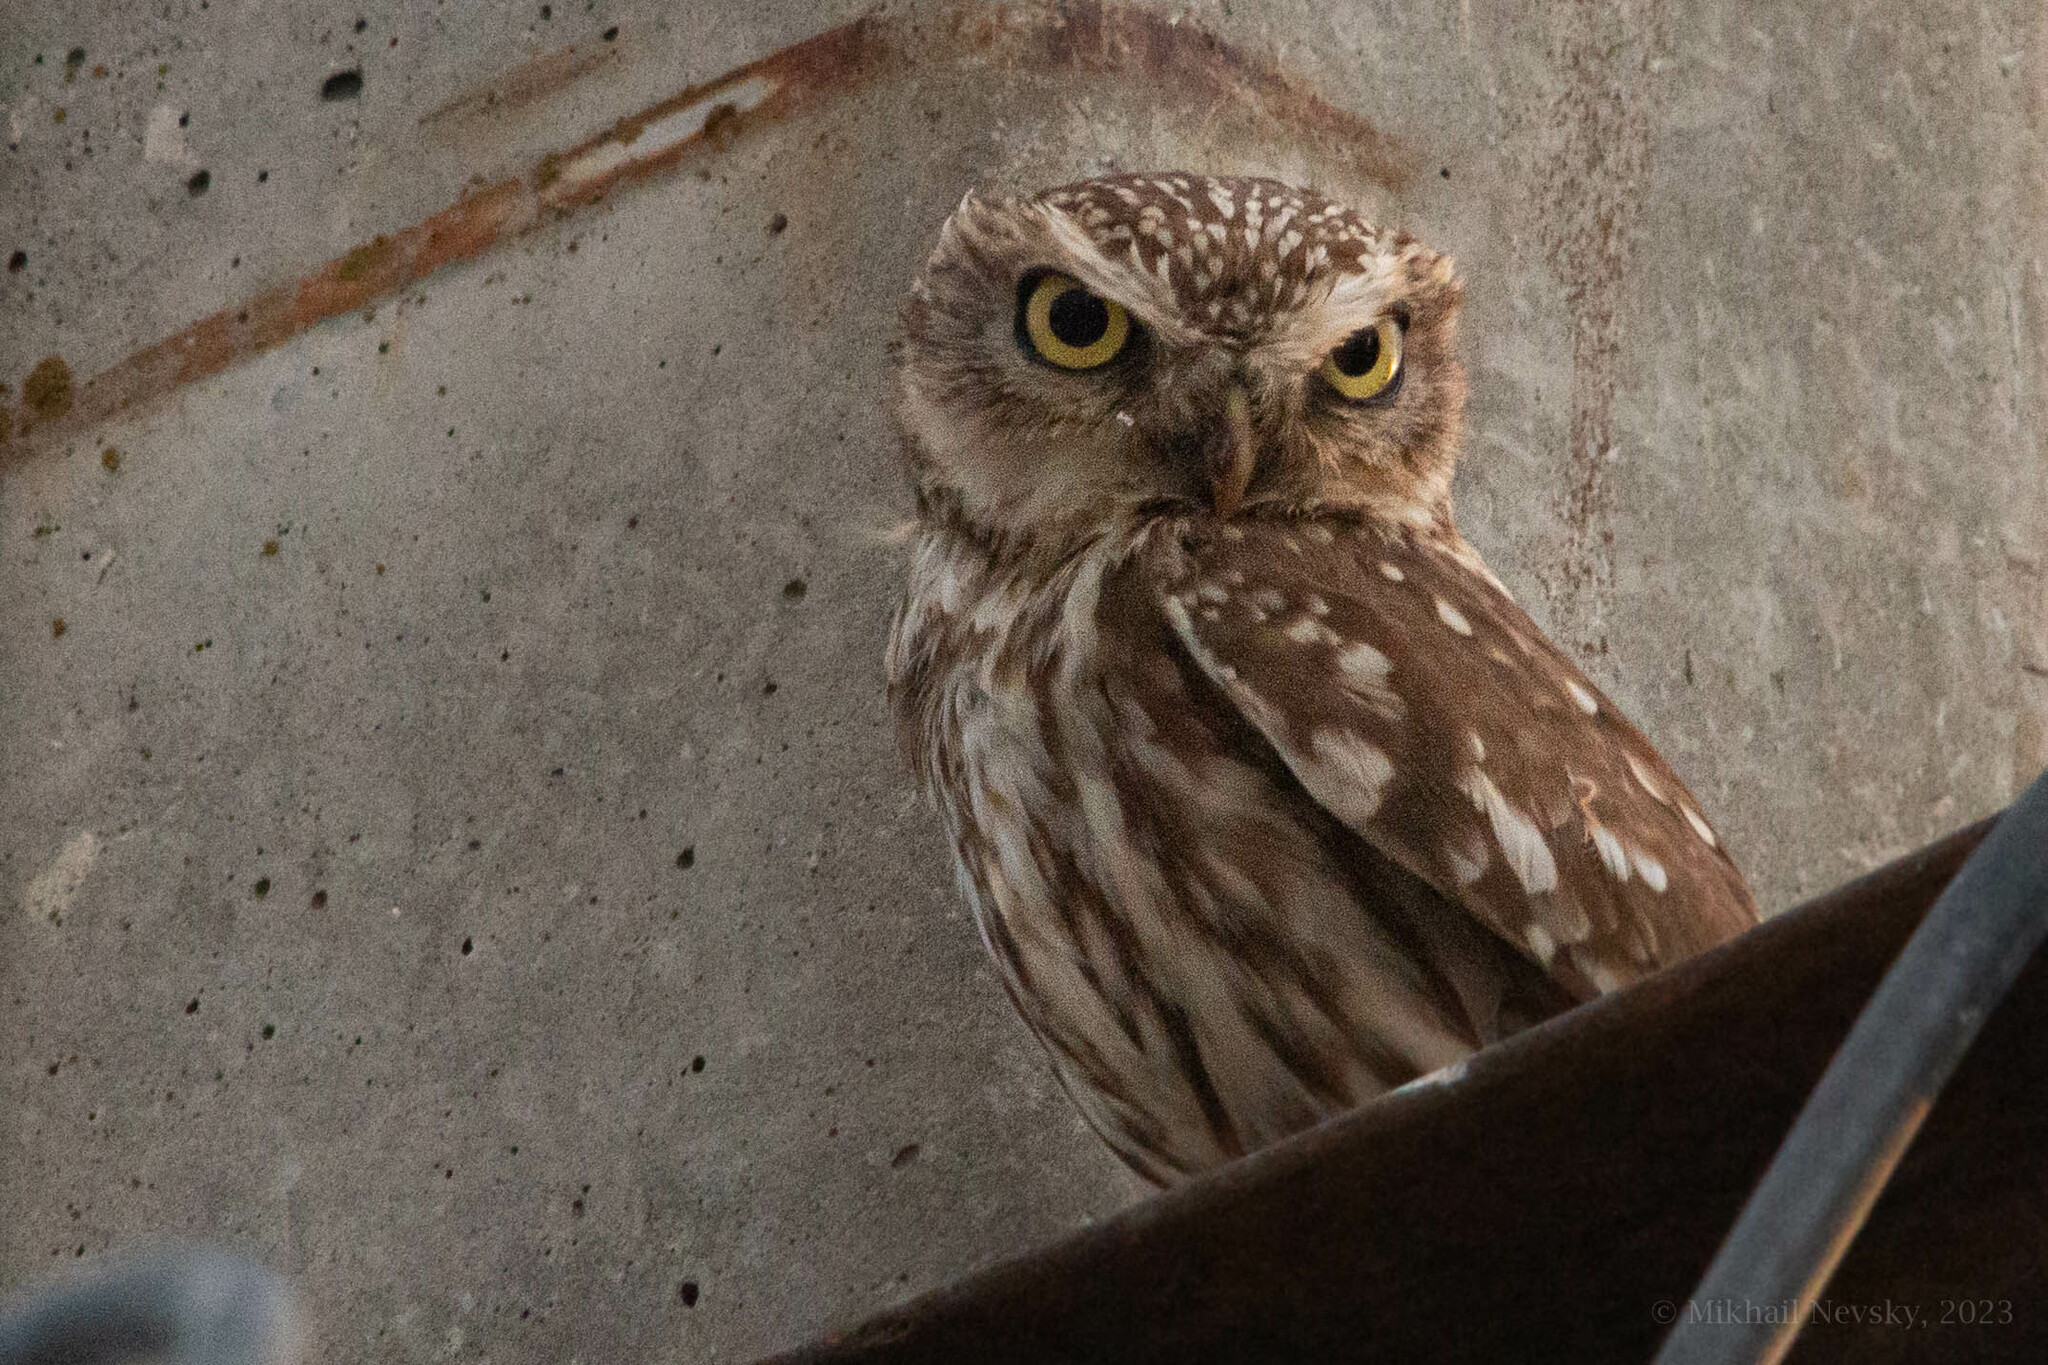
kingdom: Animalia
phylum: Chordata
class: Aves
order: Strigiformes
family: Strigidae
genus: Athene
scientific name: Athene noctua
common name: Little owl
